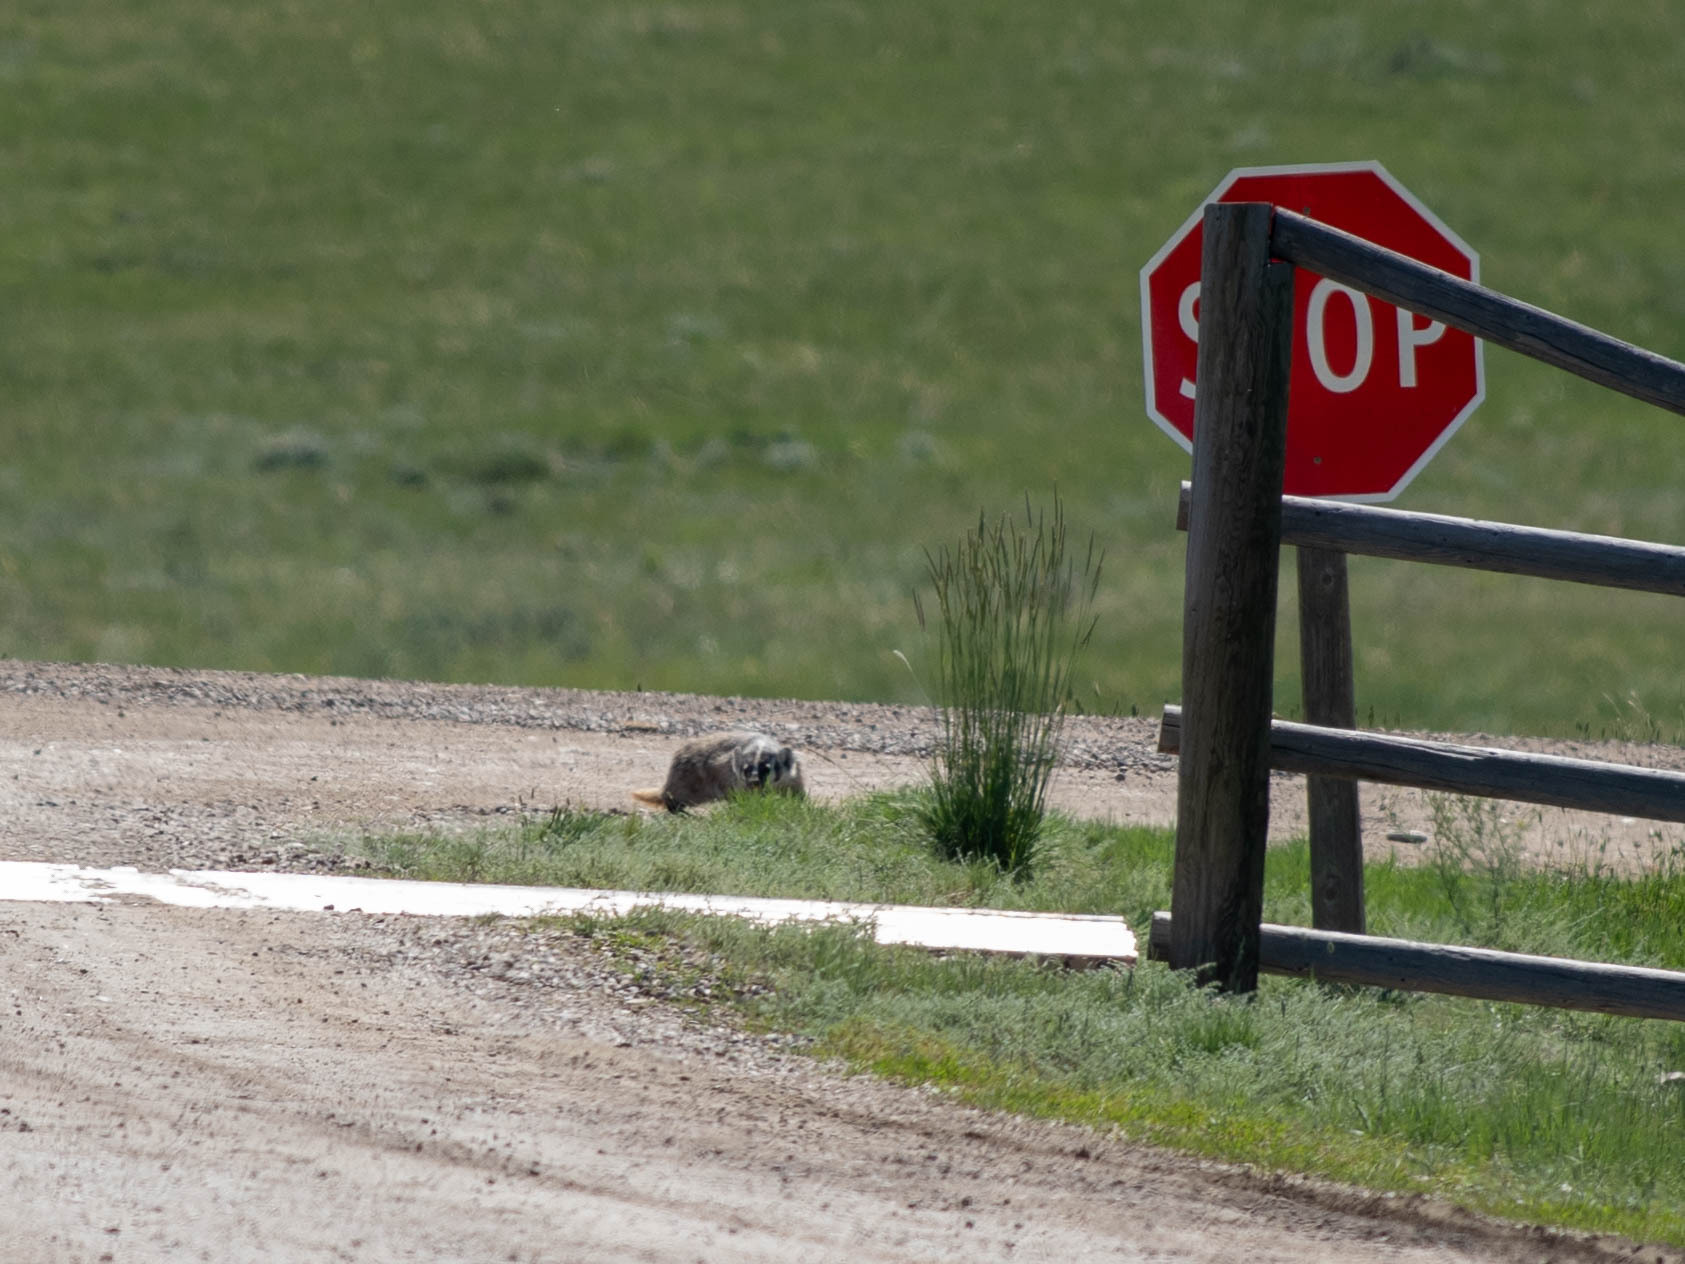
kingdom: Animalia
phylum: Chordata
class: Mammalia
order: Carnivora
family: Mustelidae
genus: Taxidea
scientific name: Taxidea taxus
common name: American badger
